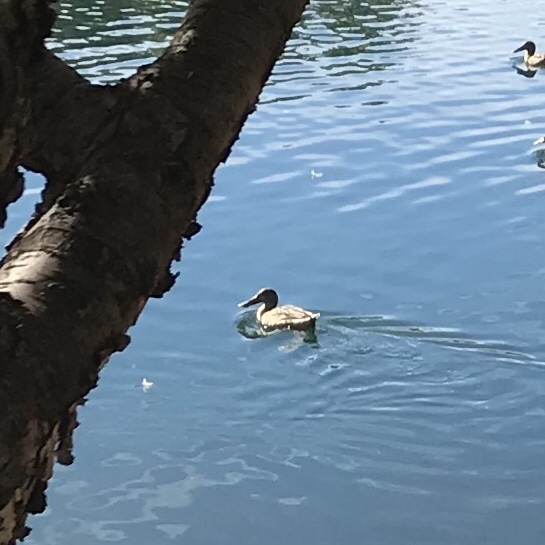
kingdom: Animalia
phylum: Chordata
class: Aves
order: Anseriformes
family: Anatidae
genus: Spatula
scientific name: Spatula clypeata
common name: Northern shoveler
